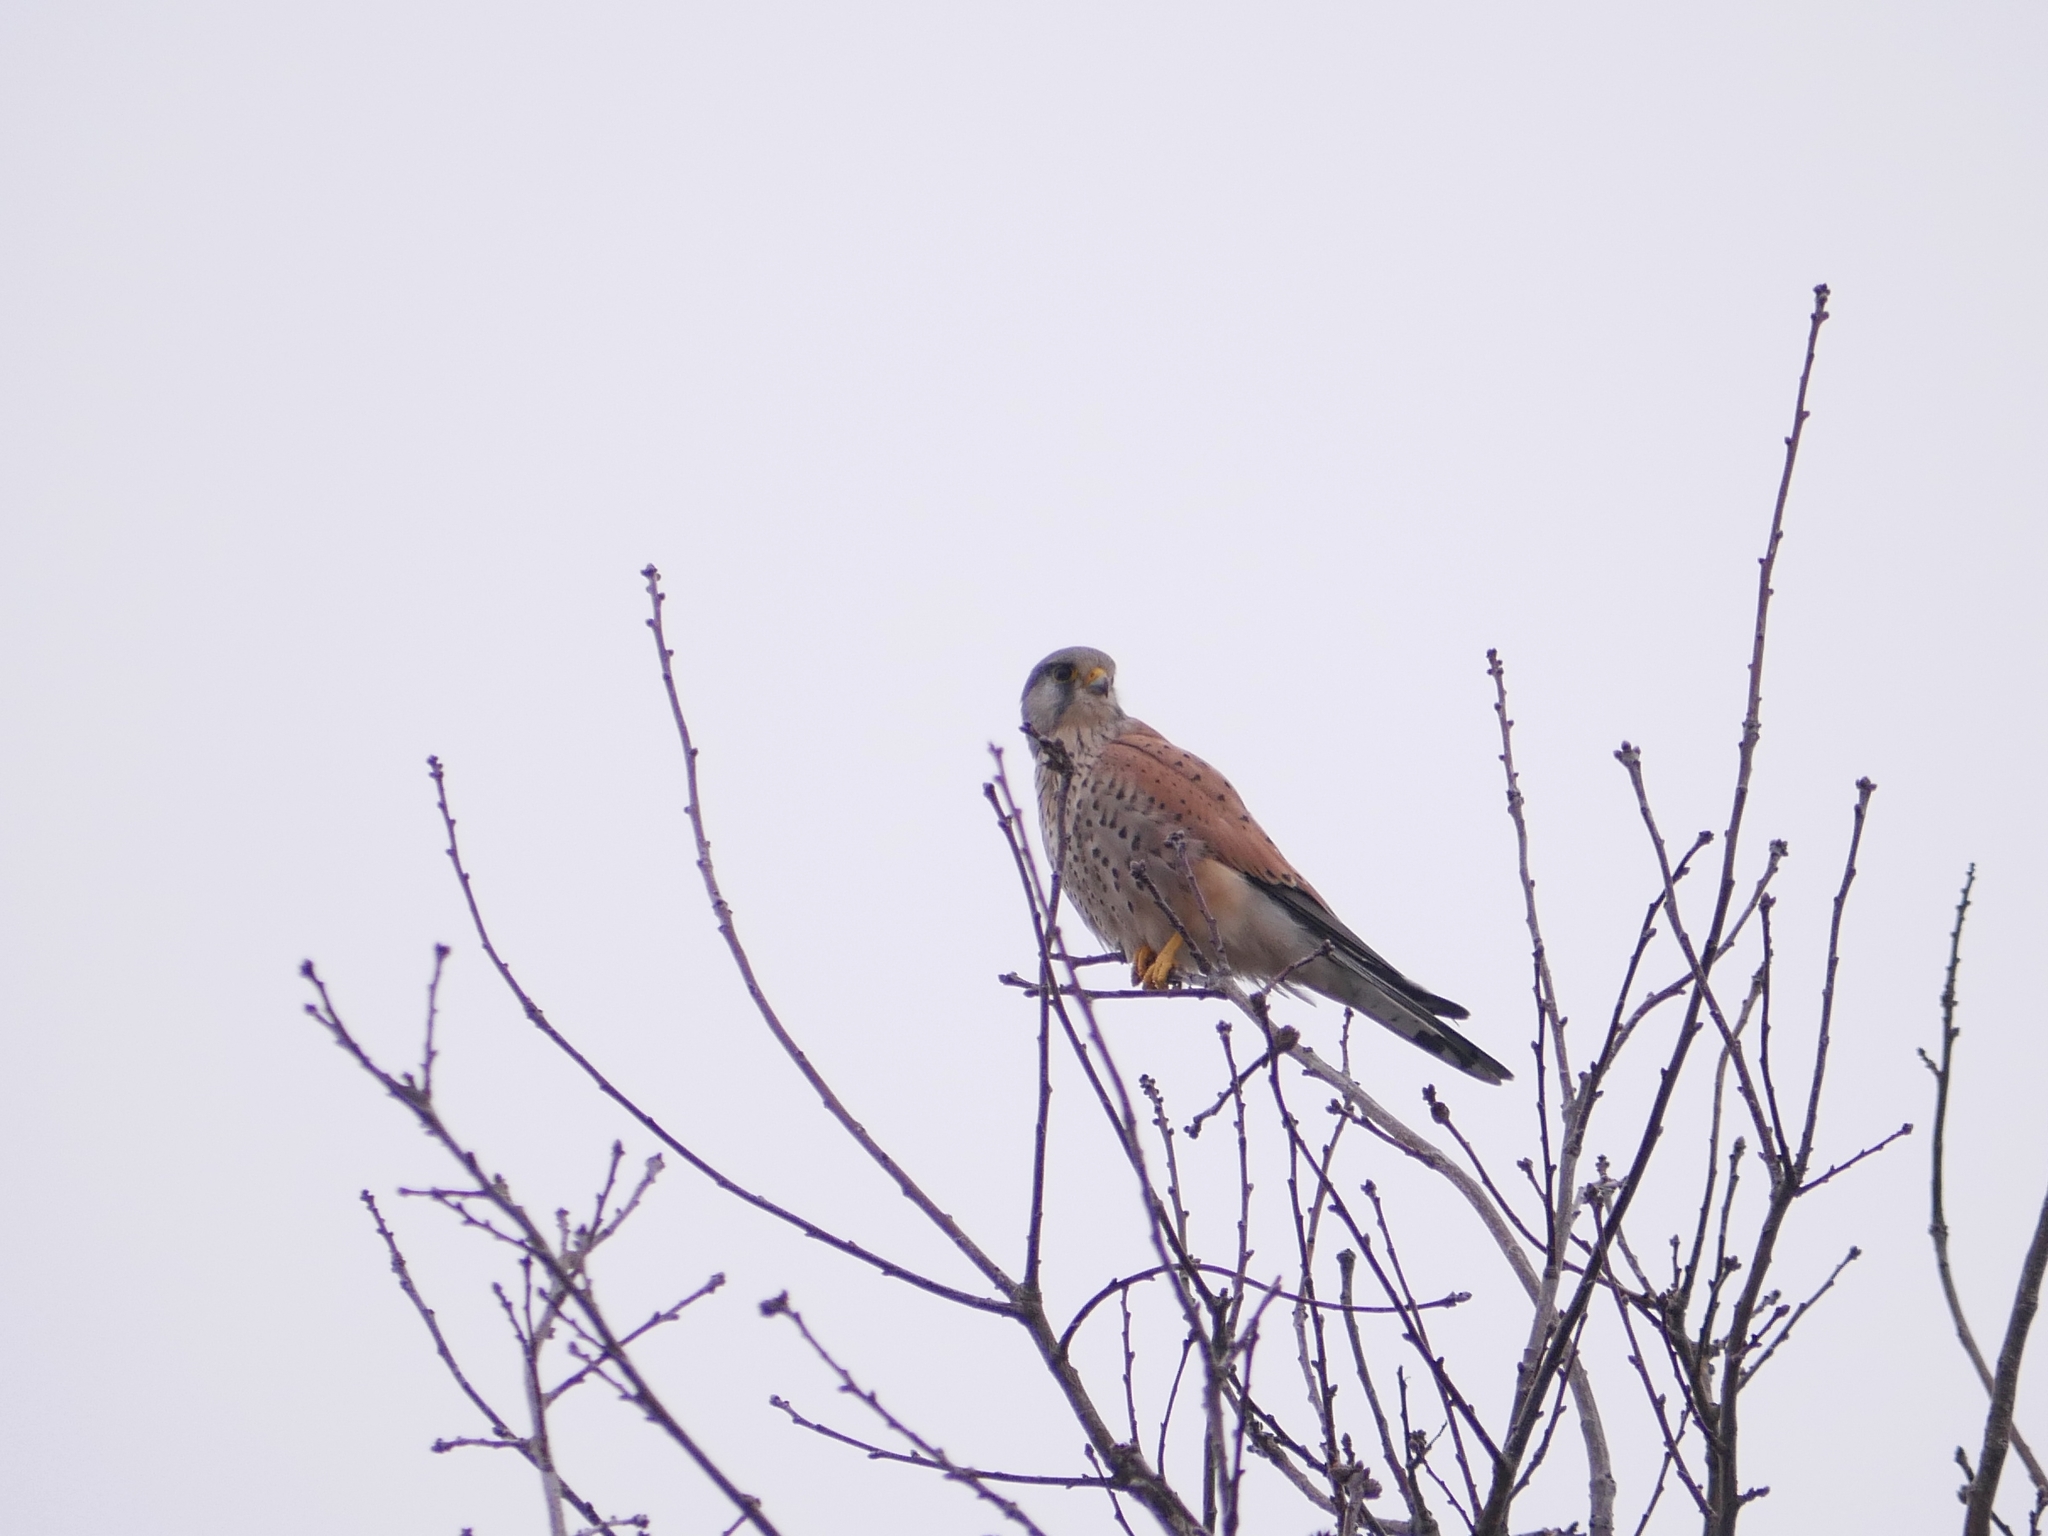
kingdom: Animalia
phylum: Chordata
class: Aves
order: Falconiformes
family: Falconidae
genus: Falco
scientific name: Falco tinnunculus
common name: Common kestrel
